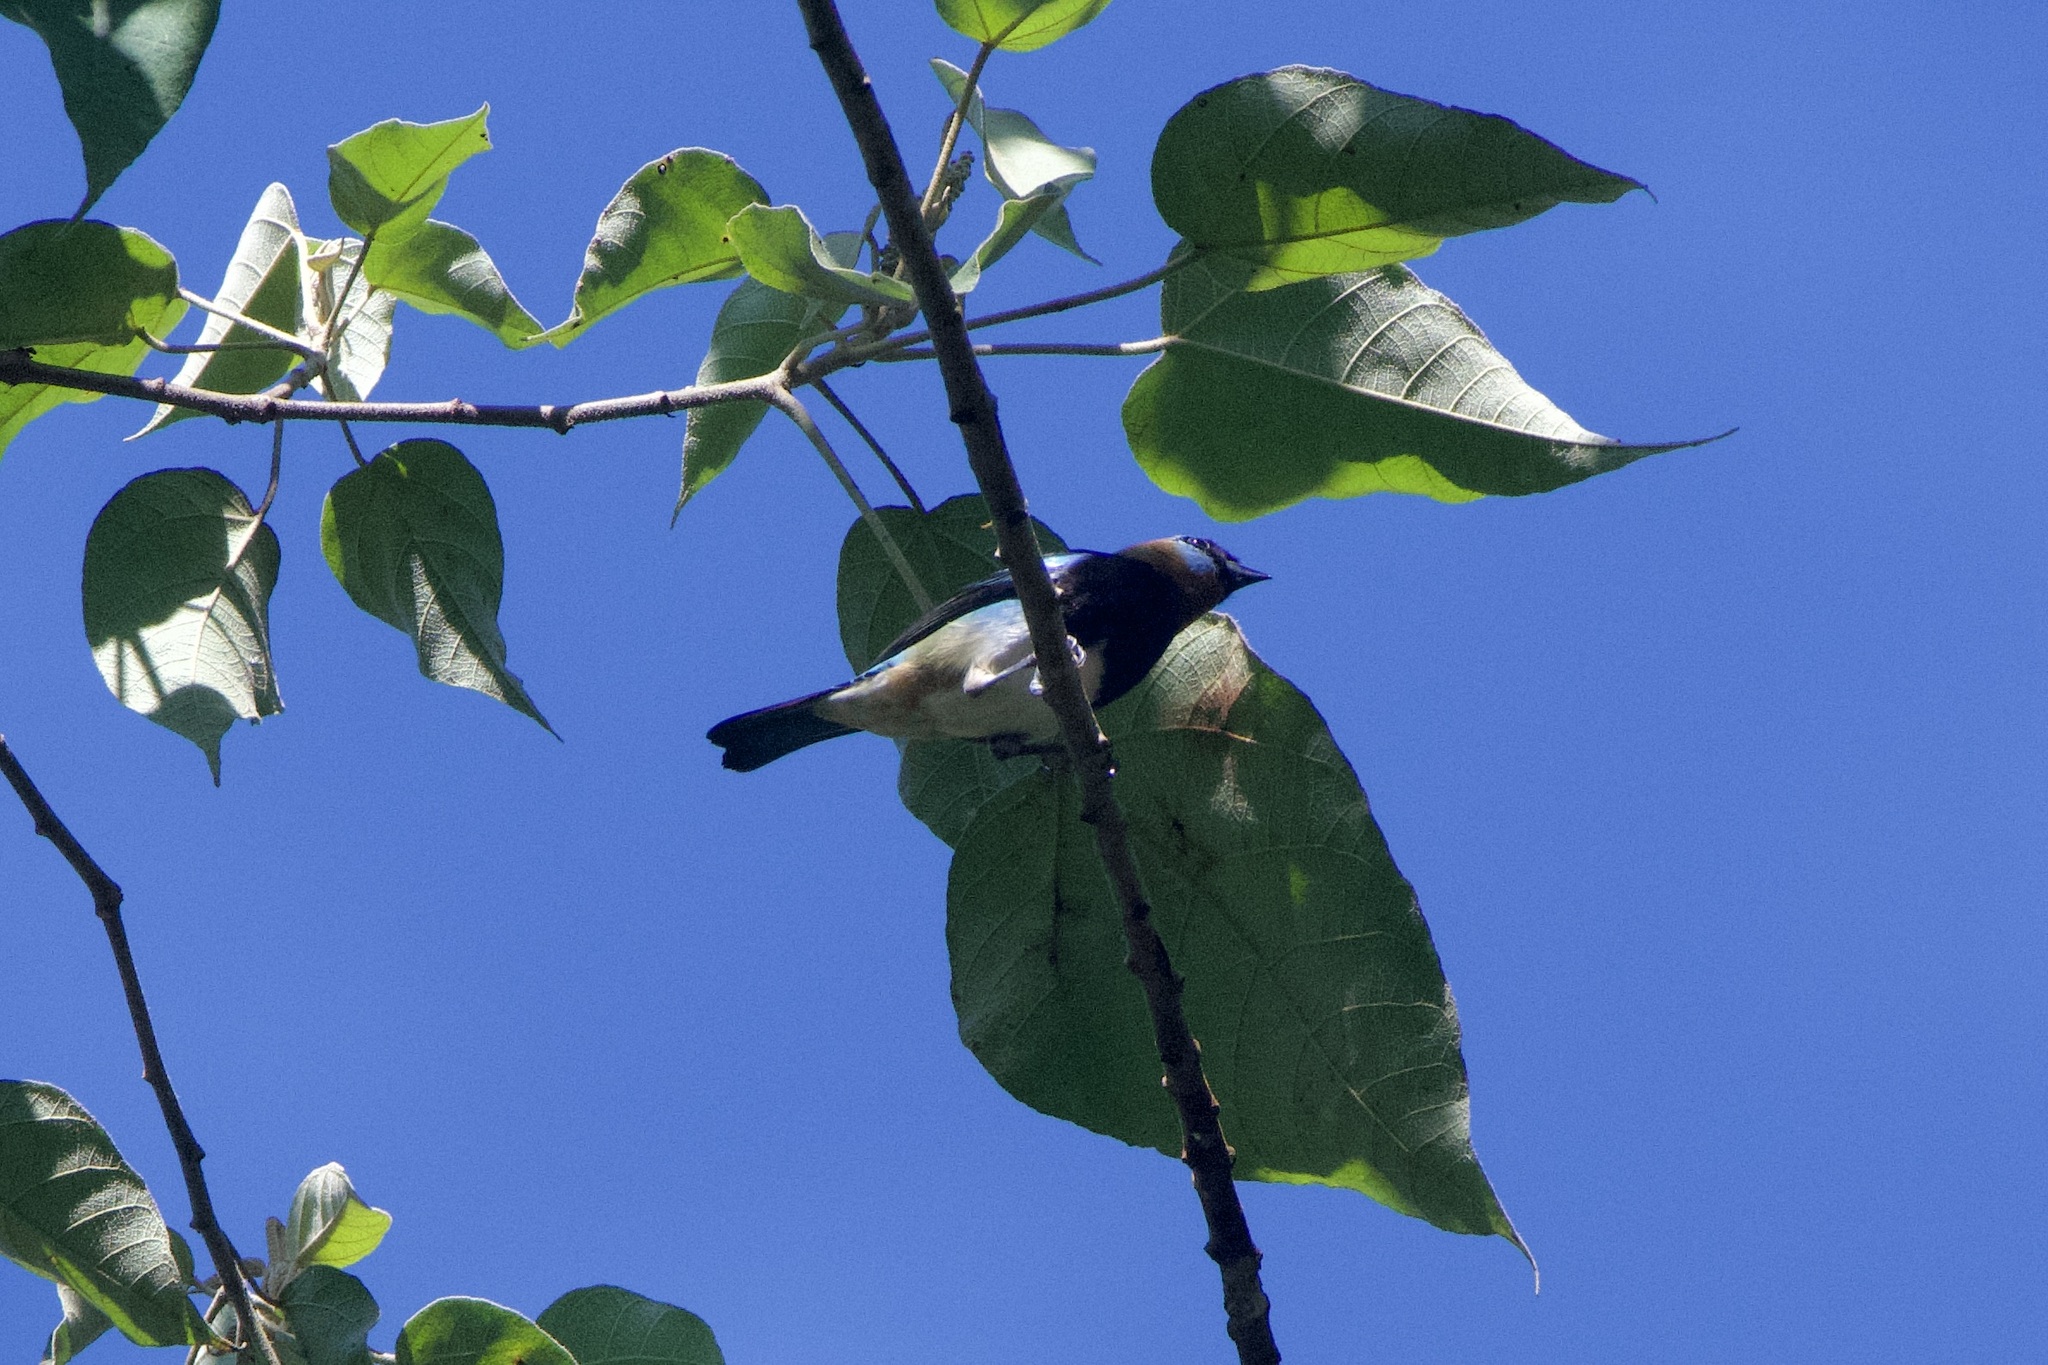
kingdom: Animalia
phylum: Chordata
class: Aves
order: Passeriformes
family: Thraupidae
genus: Stilpnia
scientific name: Stilpnia larvata
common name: Golden-hooded tanager
